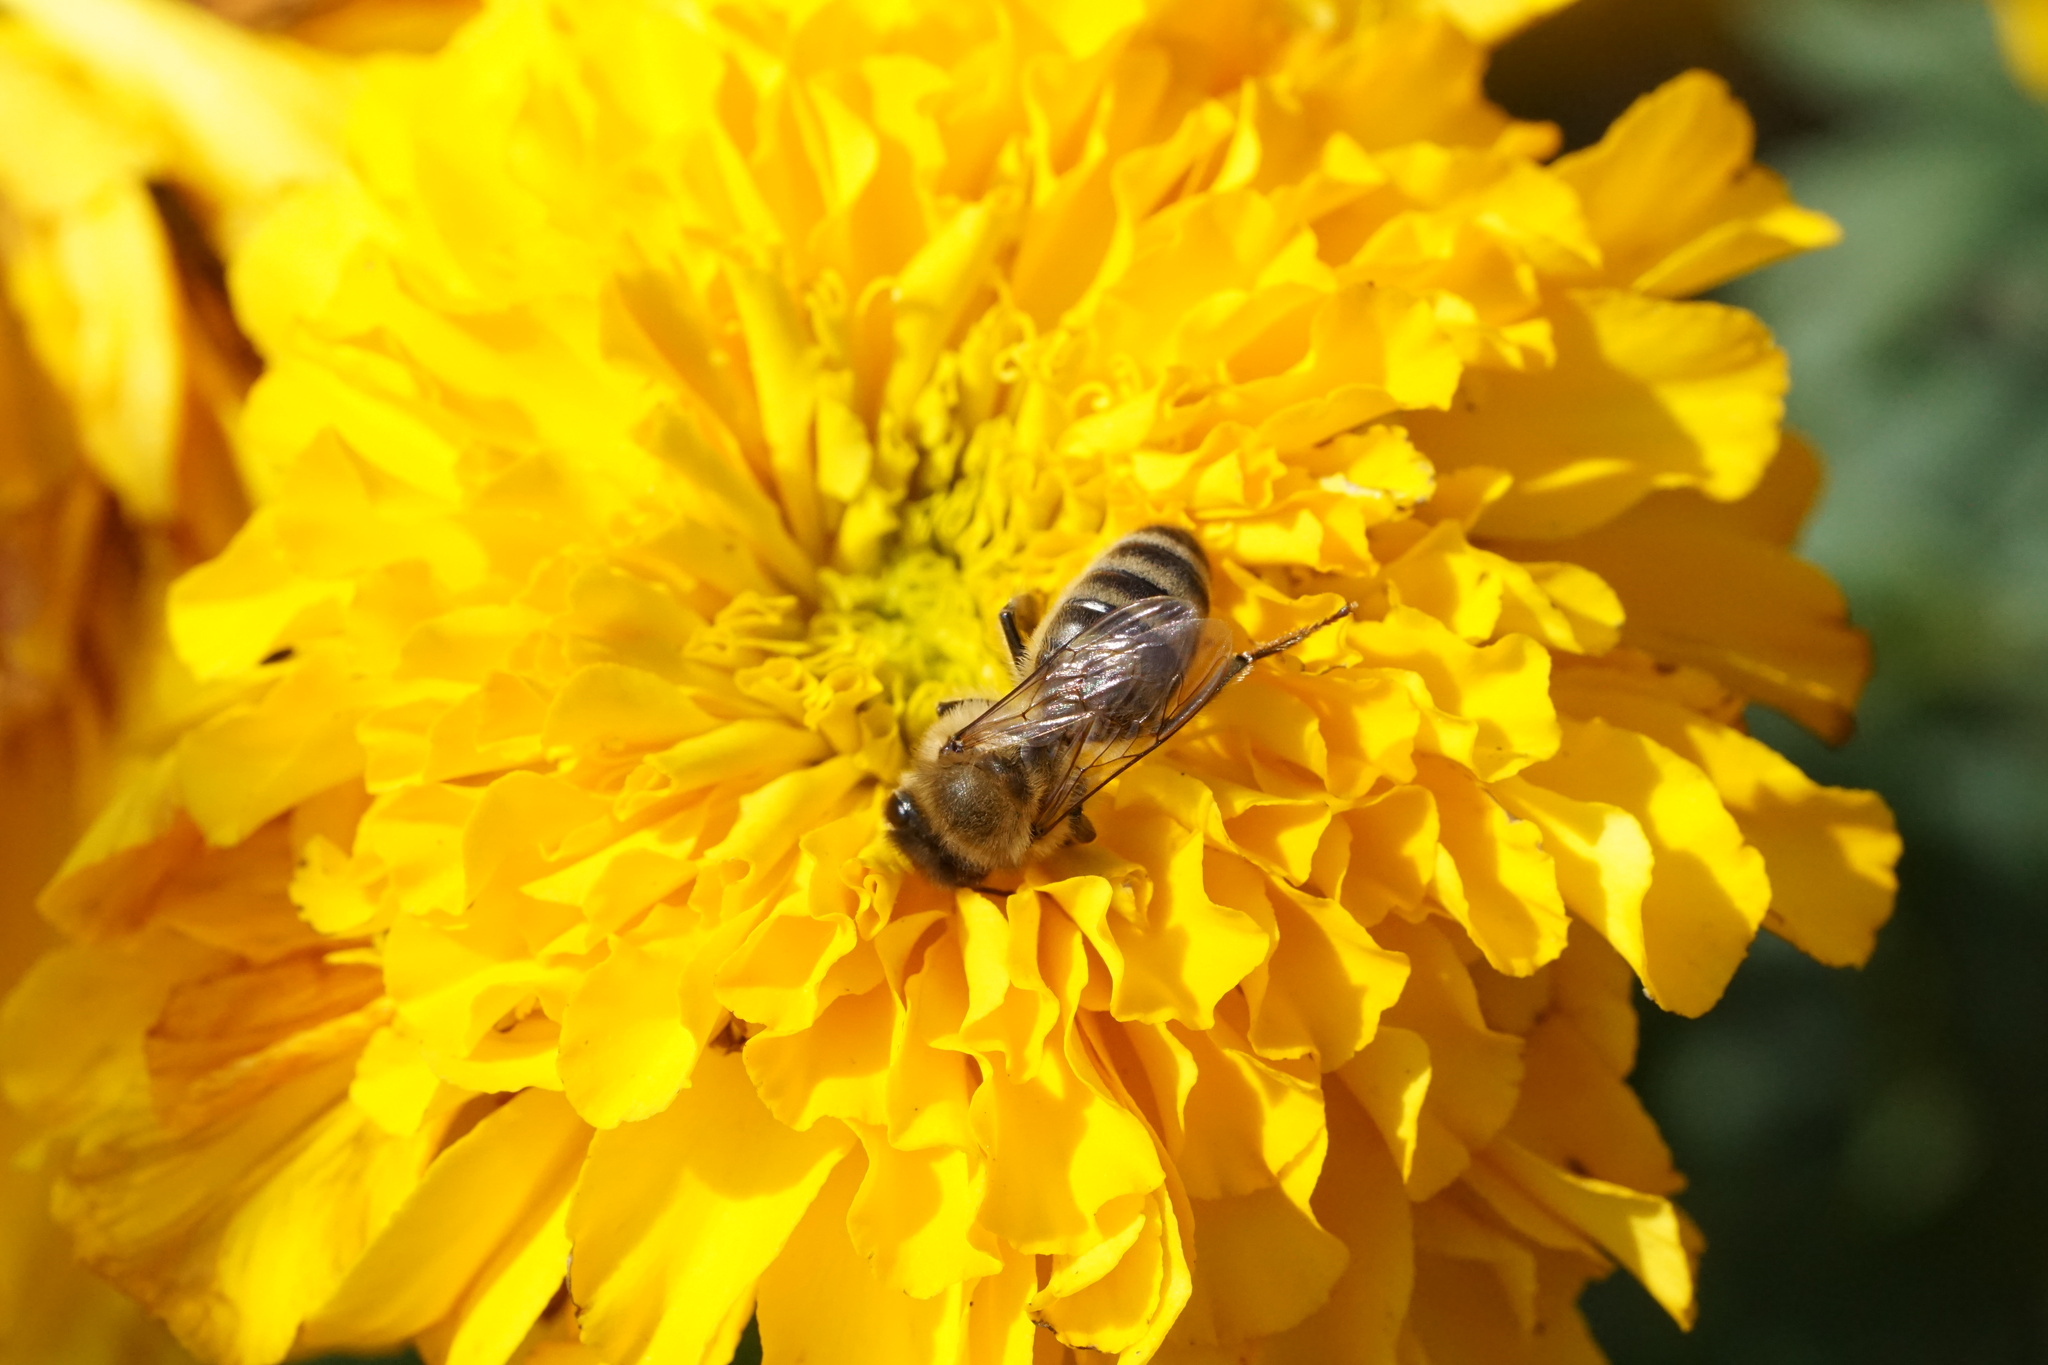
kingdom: Animalia
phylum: Arthropoda
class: Insecta
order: Hymenoptera
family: Apidae
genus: Apis
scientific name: Apis mellifera
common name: Honey bee
